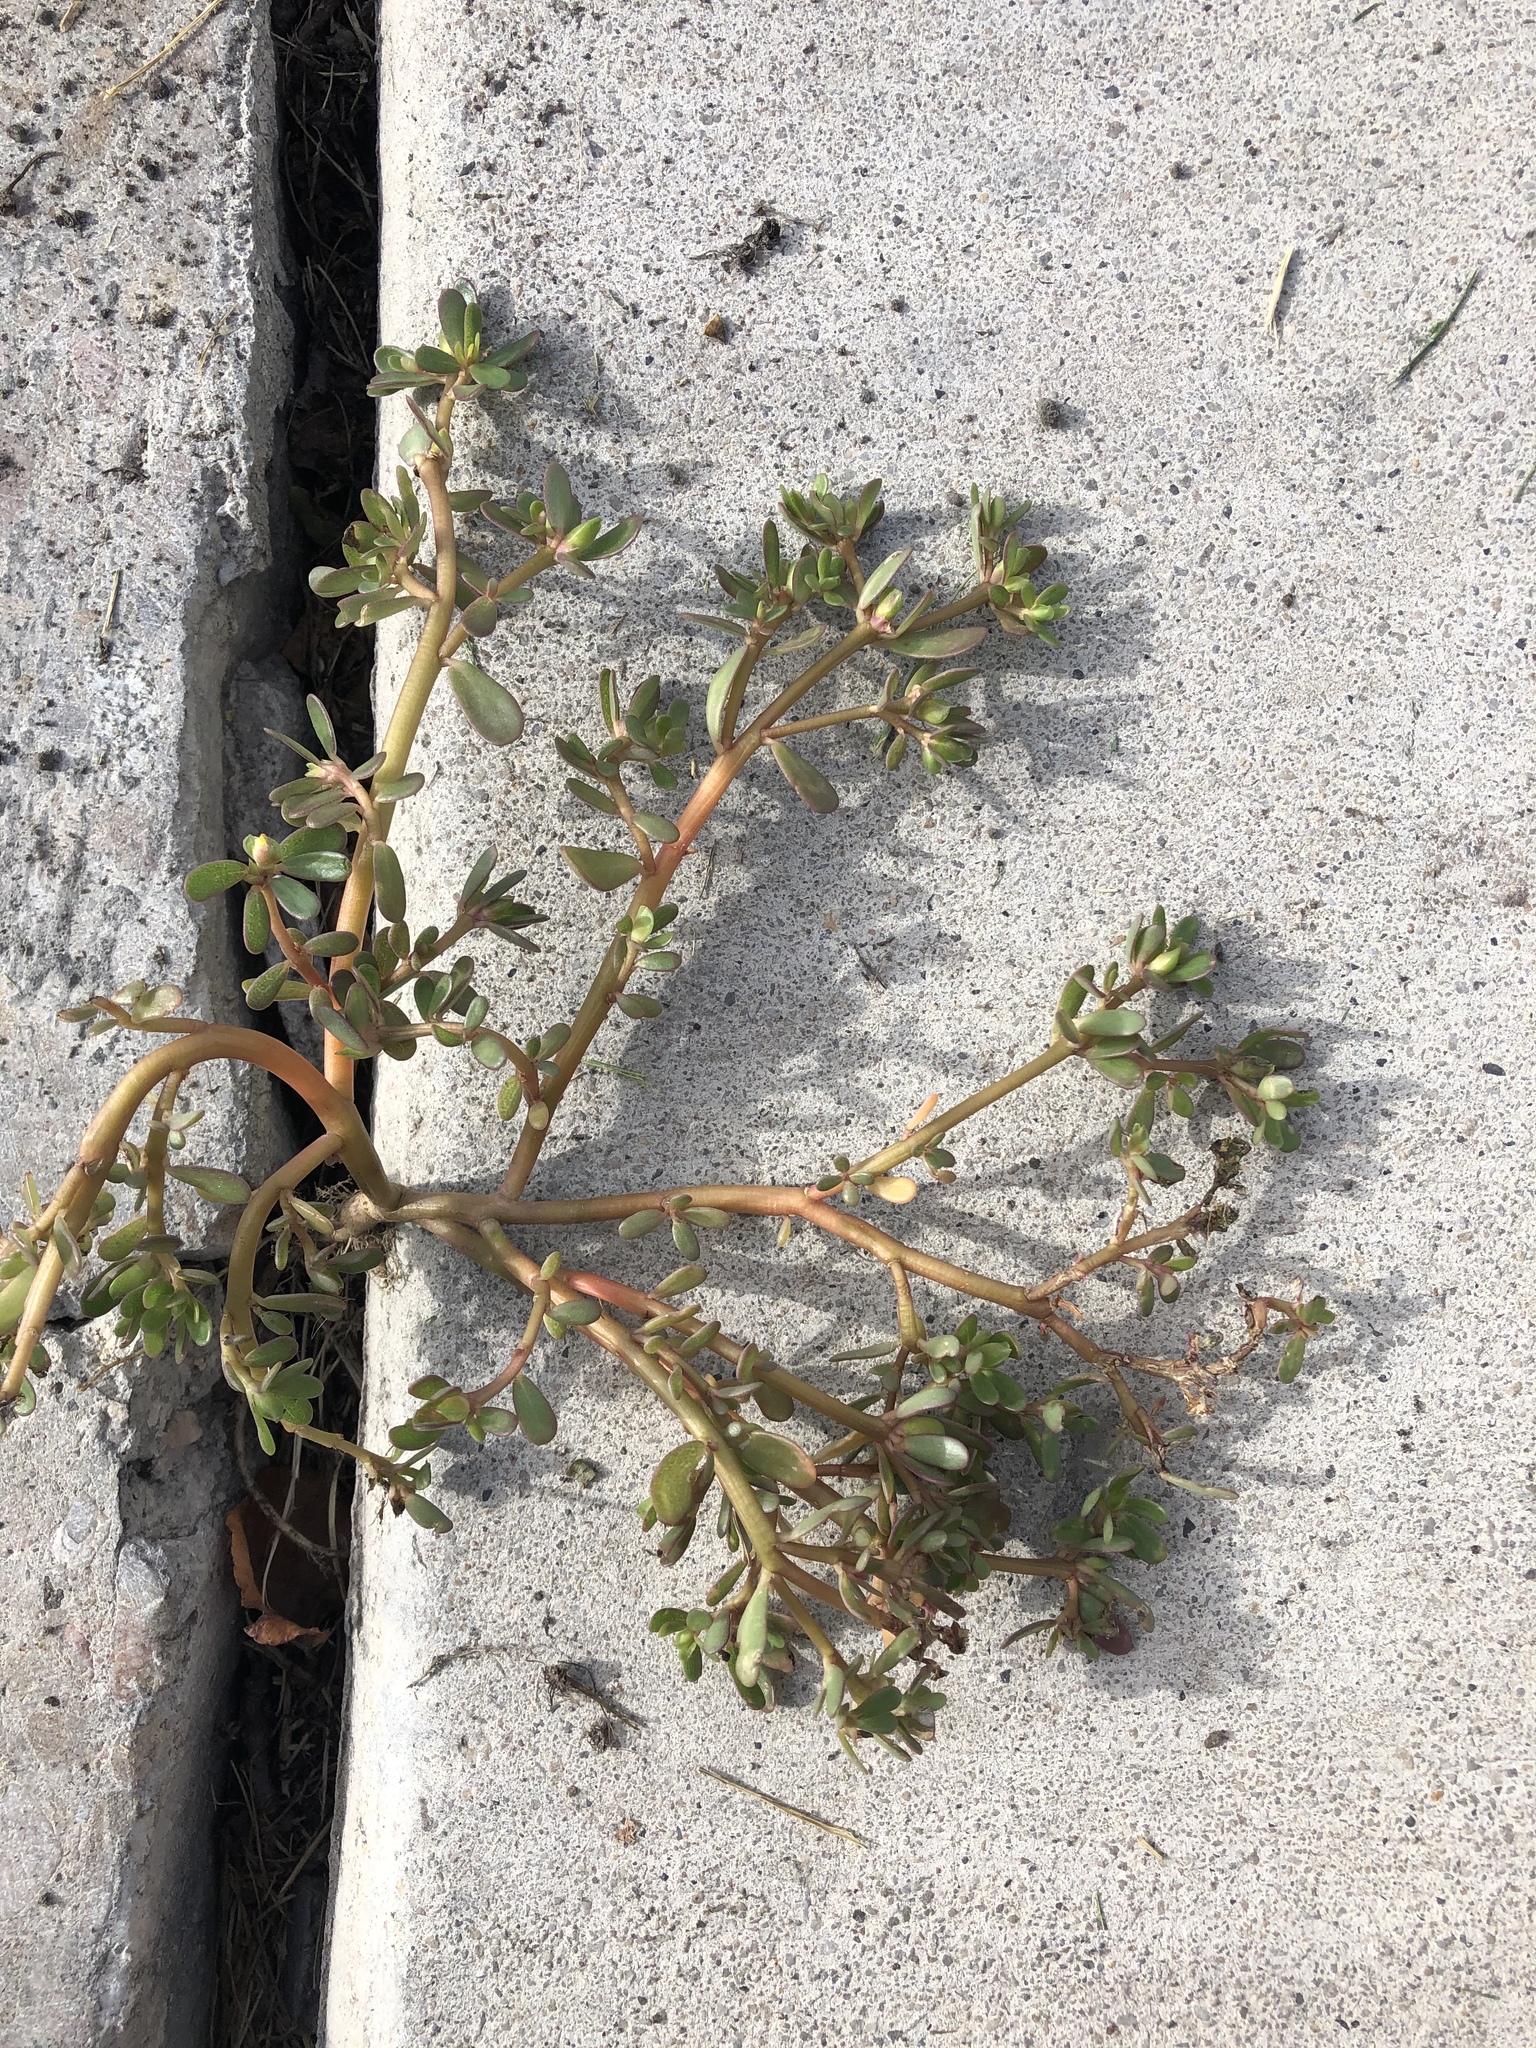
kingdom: Plantae
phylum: Tracheophyta
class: Magnoliopsida
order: Caryophyllales
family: Portulacaceae
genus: Portulaca
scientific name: Portulaca oleracea
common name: Common purslane
